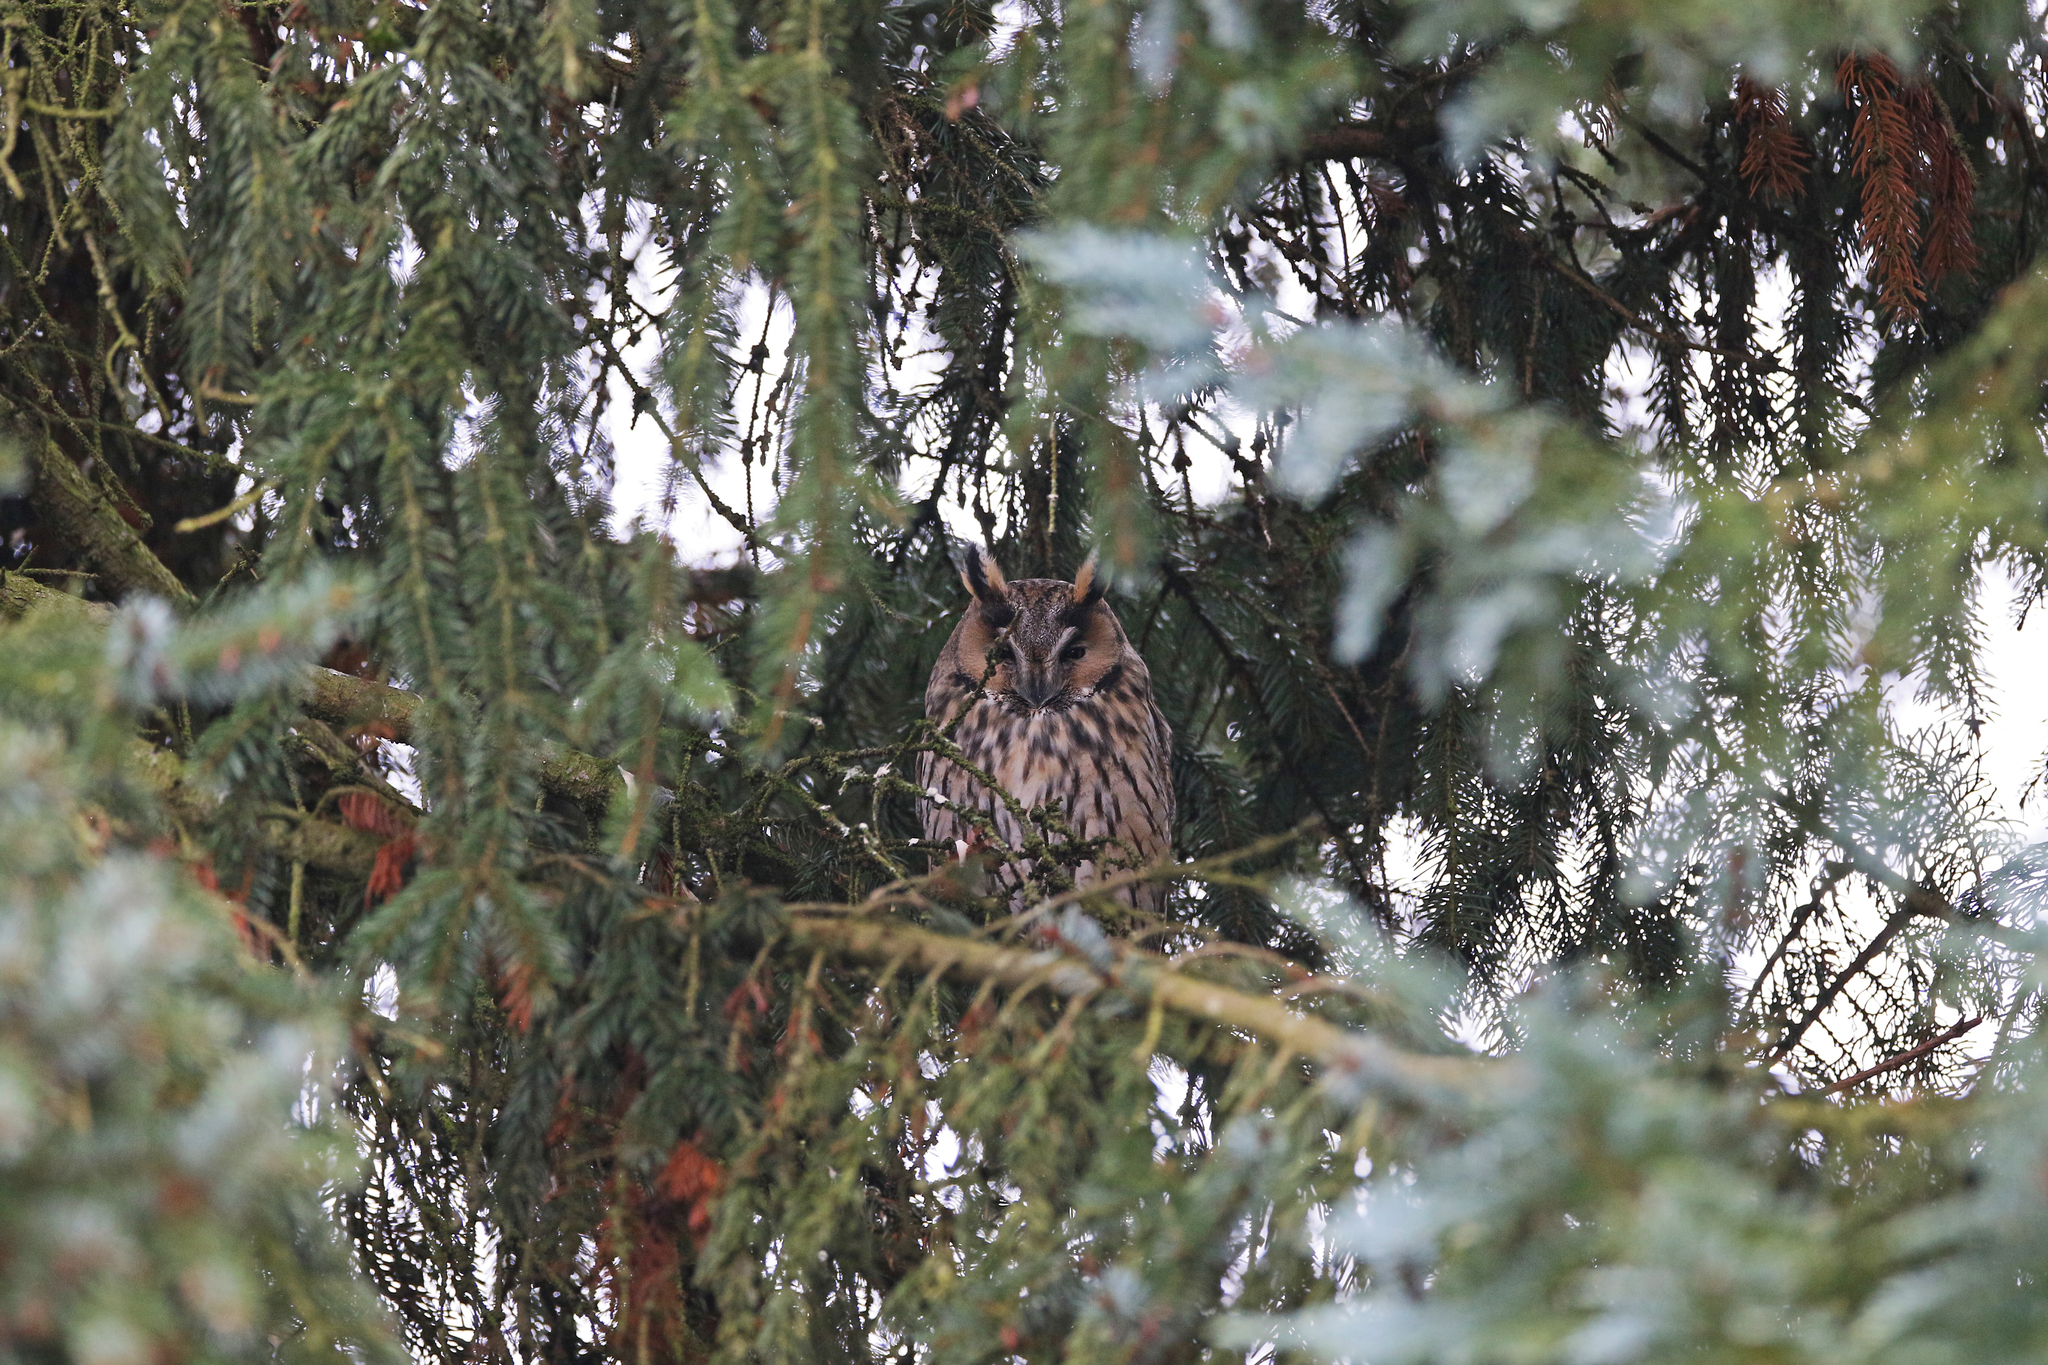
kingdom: Animalia
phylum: Chordata
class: Aves
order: Strigiformes
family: Strigidae
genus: Asio
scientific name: Asio otus
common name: Long-eared owl
